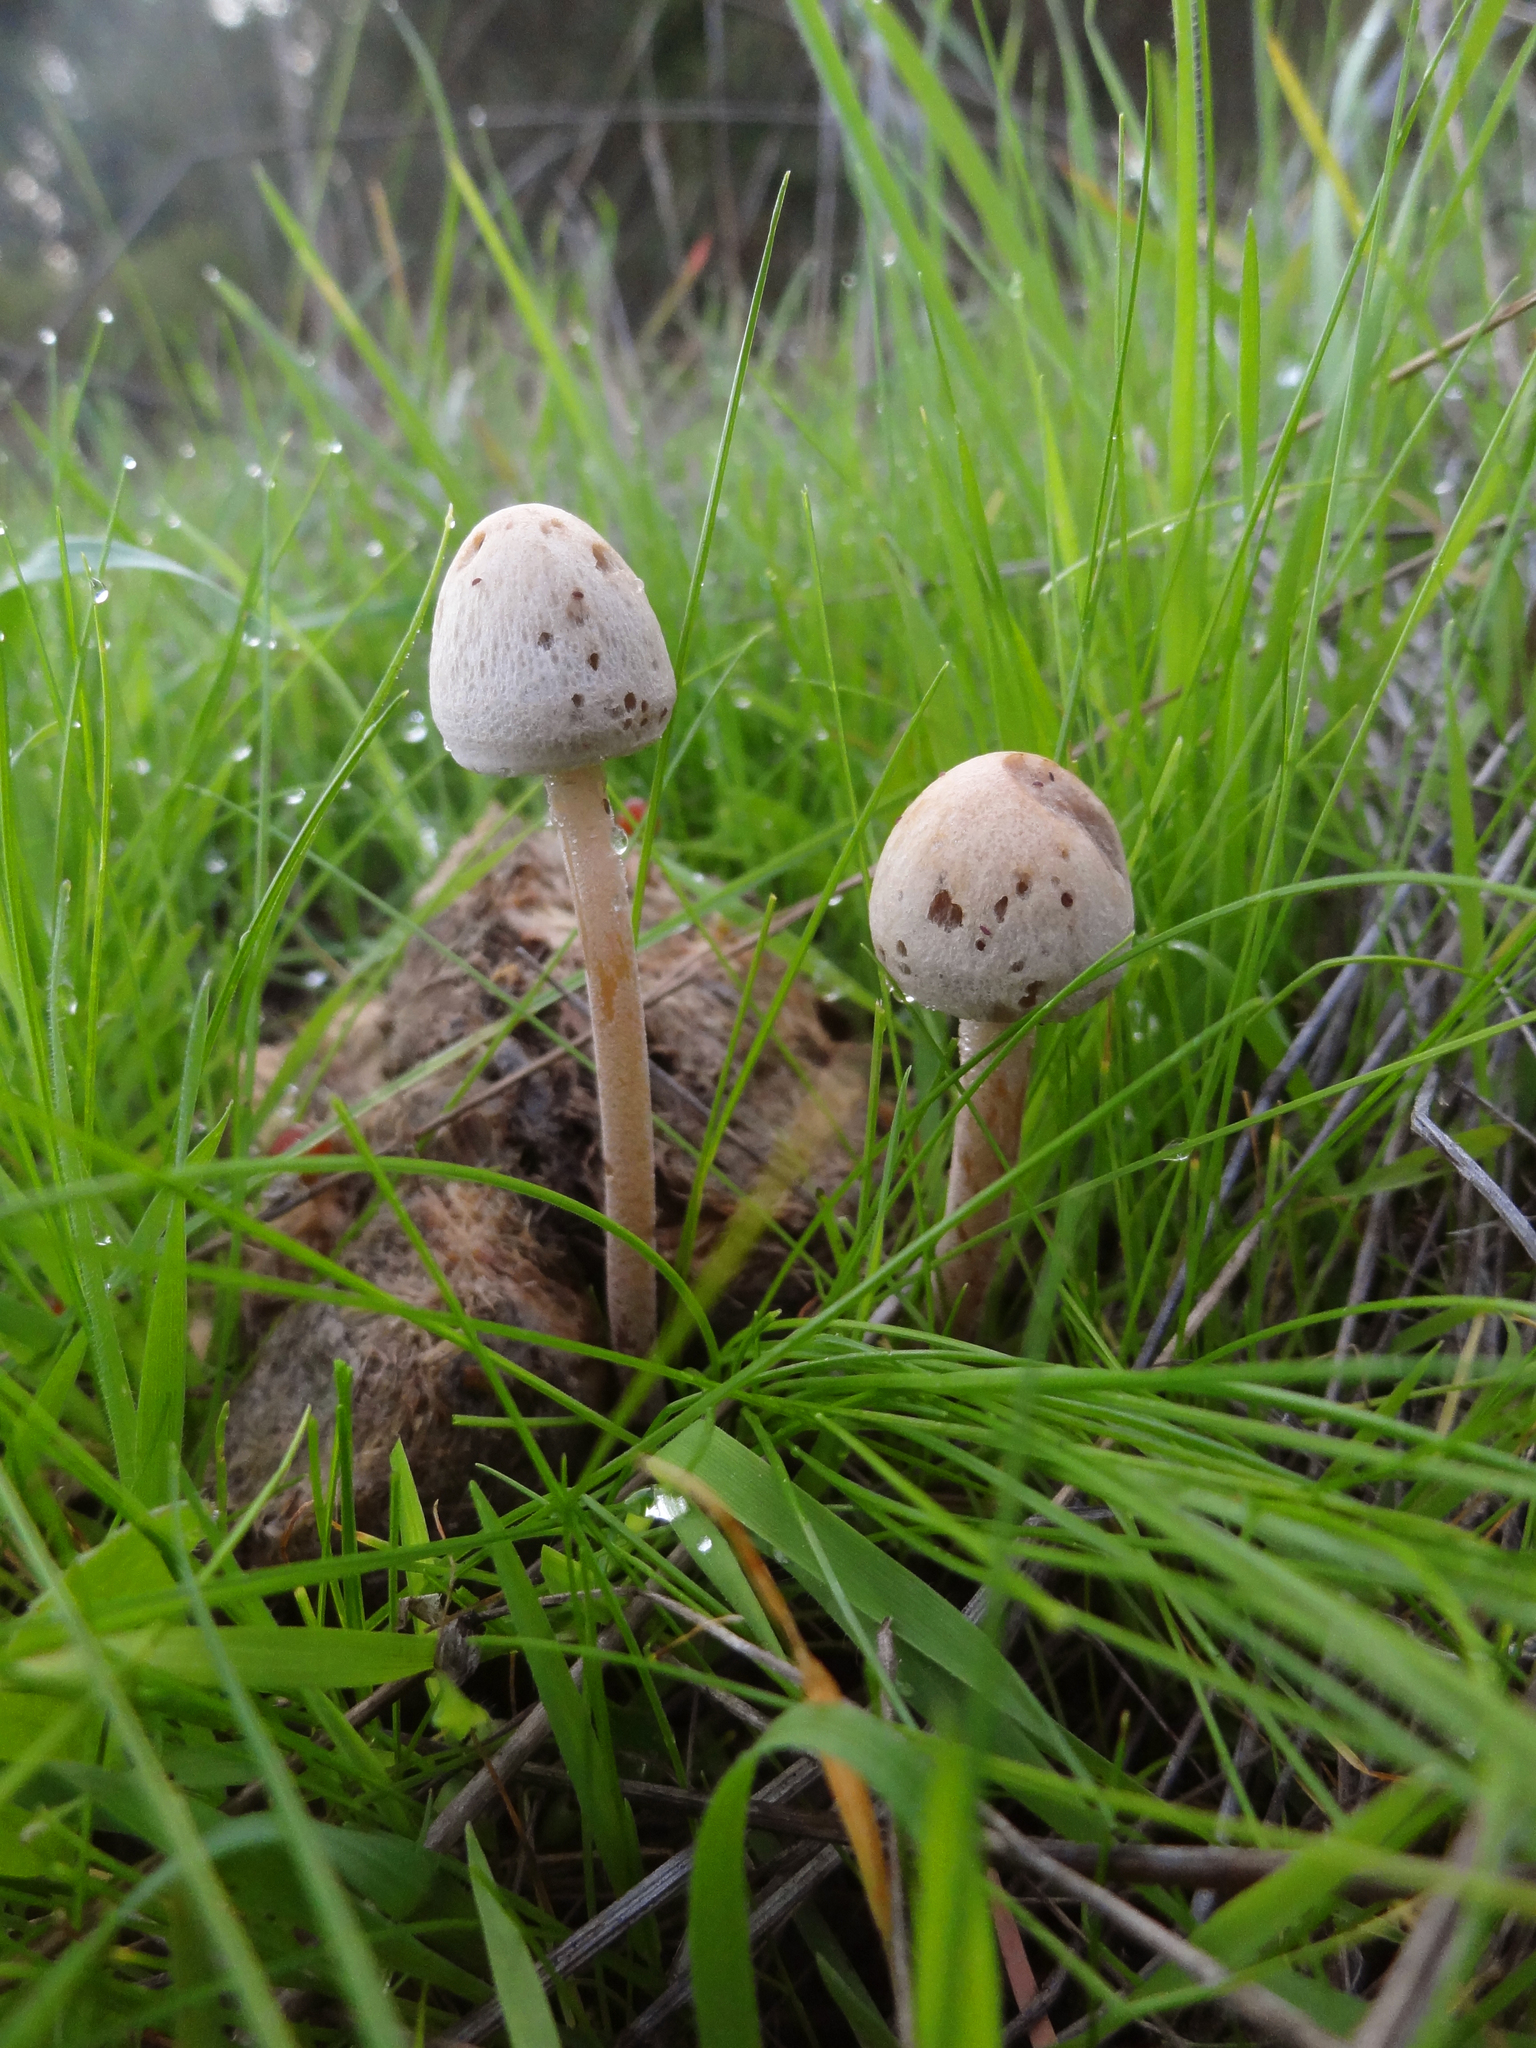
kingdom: Fungi
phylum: Basidiomycota
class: Agaricomycetes
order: Agaricales
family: Bolbitiaceae
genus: Panaeolus
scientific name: Panaeolus papilionaceus
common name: Petticoat mottlegill
